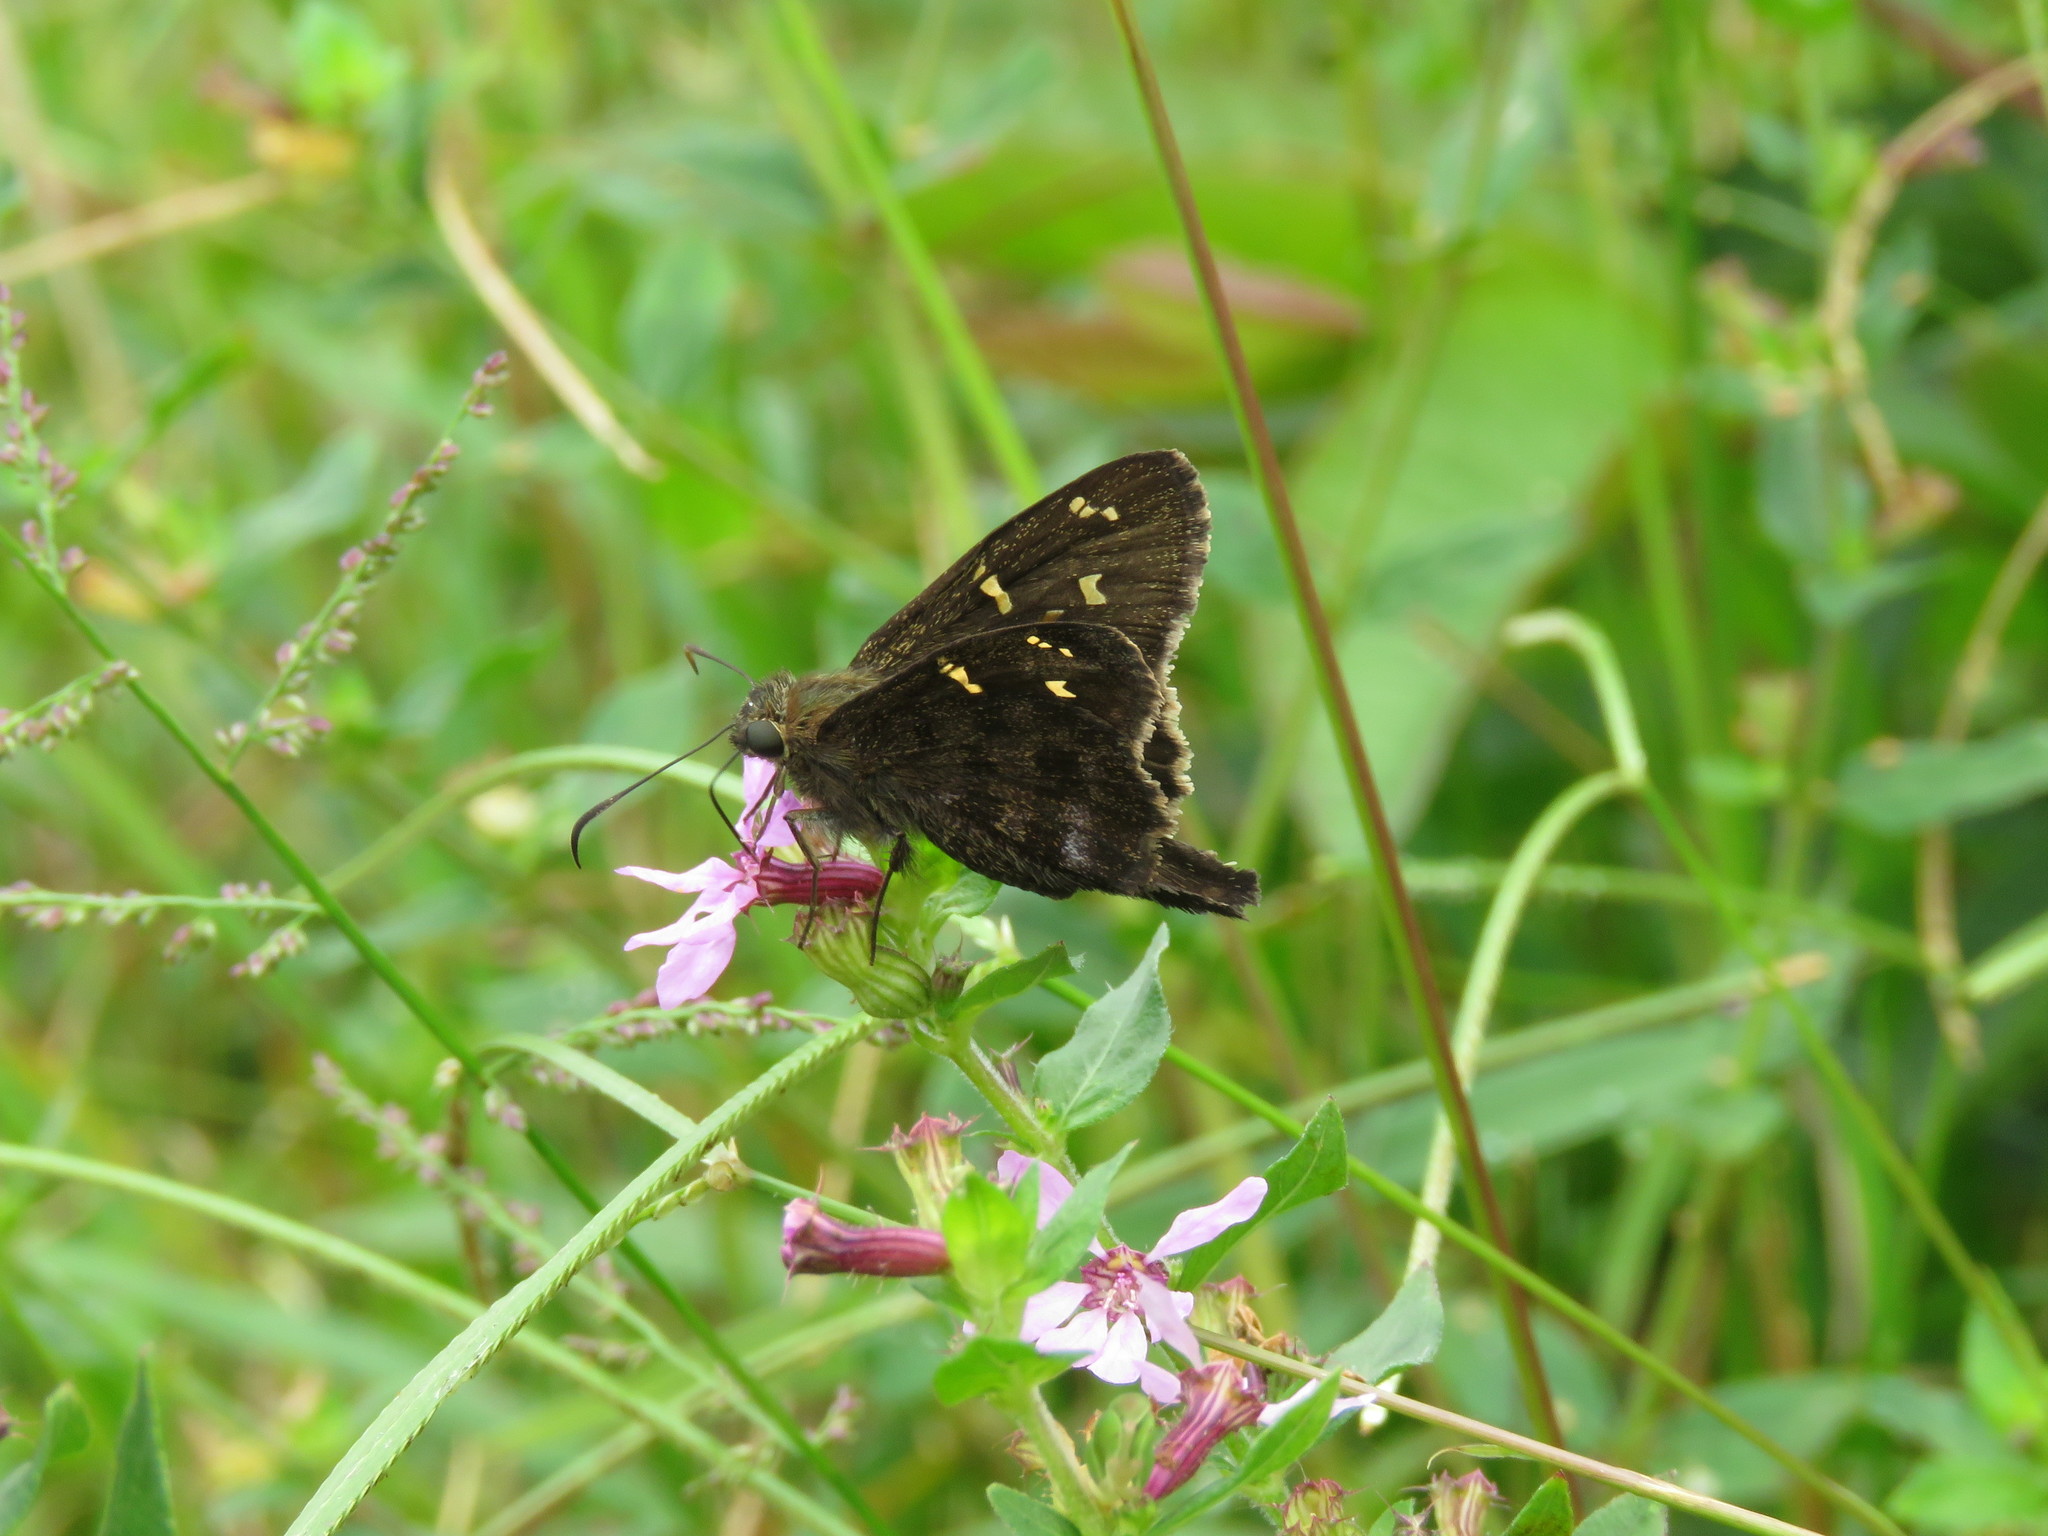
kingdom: Animalia
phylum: Arthropoda
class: Insecta
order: Lepidoptera
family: Hesperiidae
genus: Thorybes
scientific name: Thorybes
